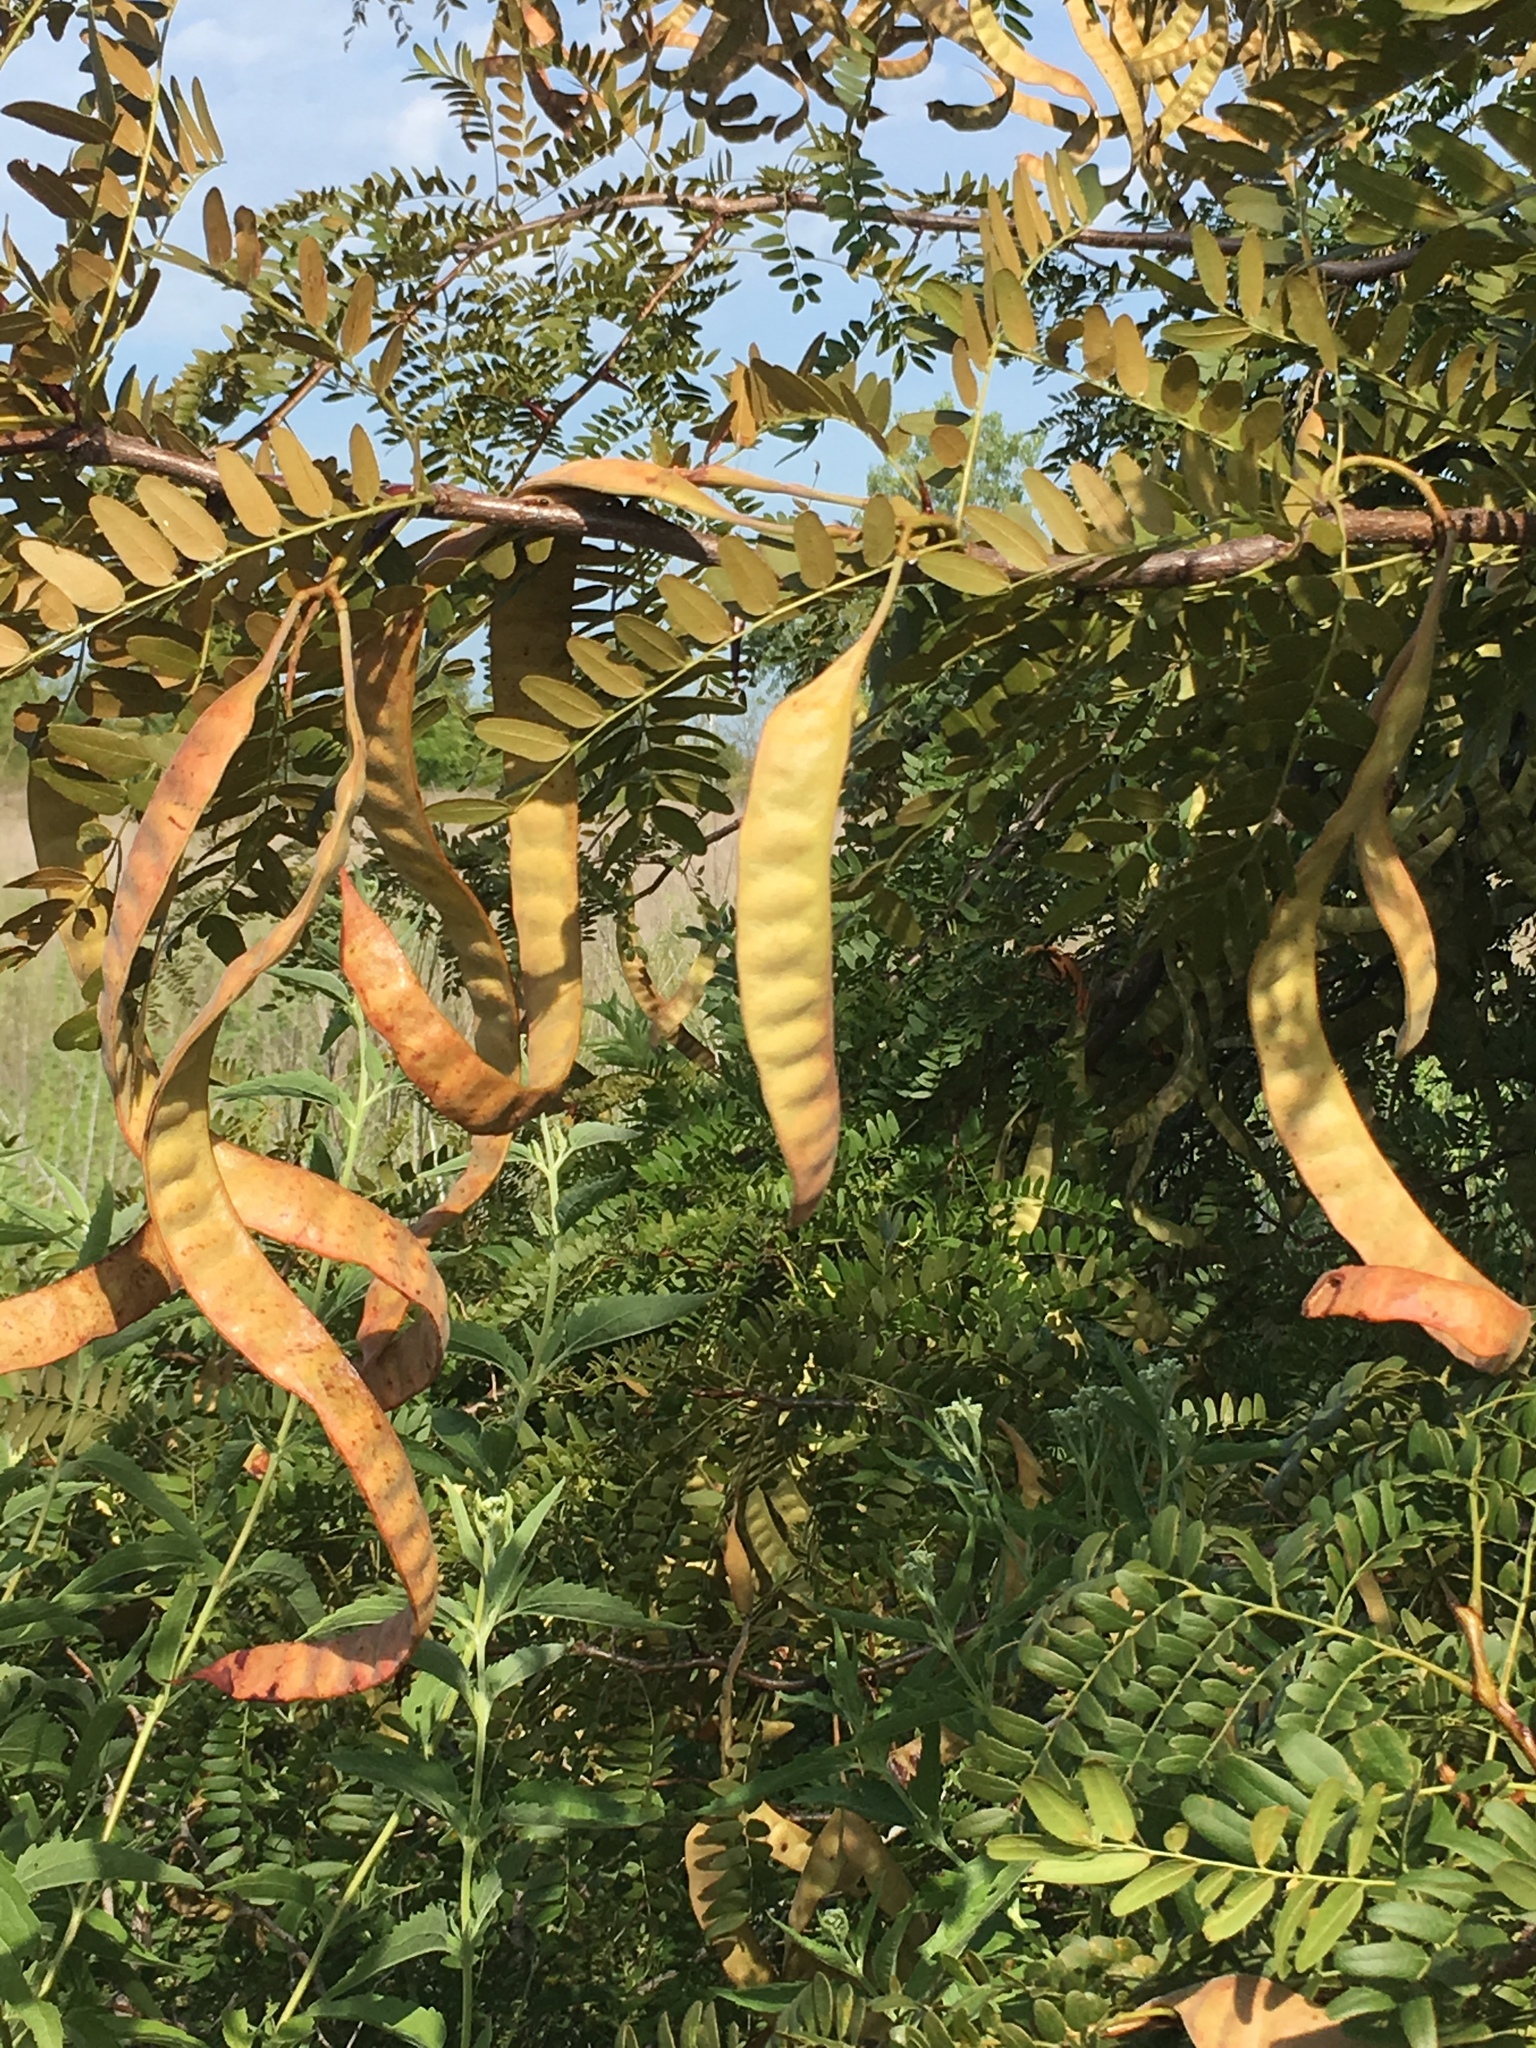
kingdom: Plantae
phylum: Tracheophyta
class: Magnoliopsida
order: Fabales
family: Fabaceae
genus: Gleditsia
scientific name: Gleditsia triacanthos
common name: Common honeylocust
